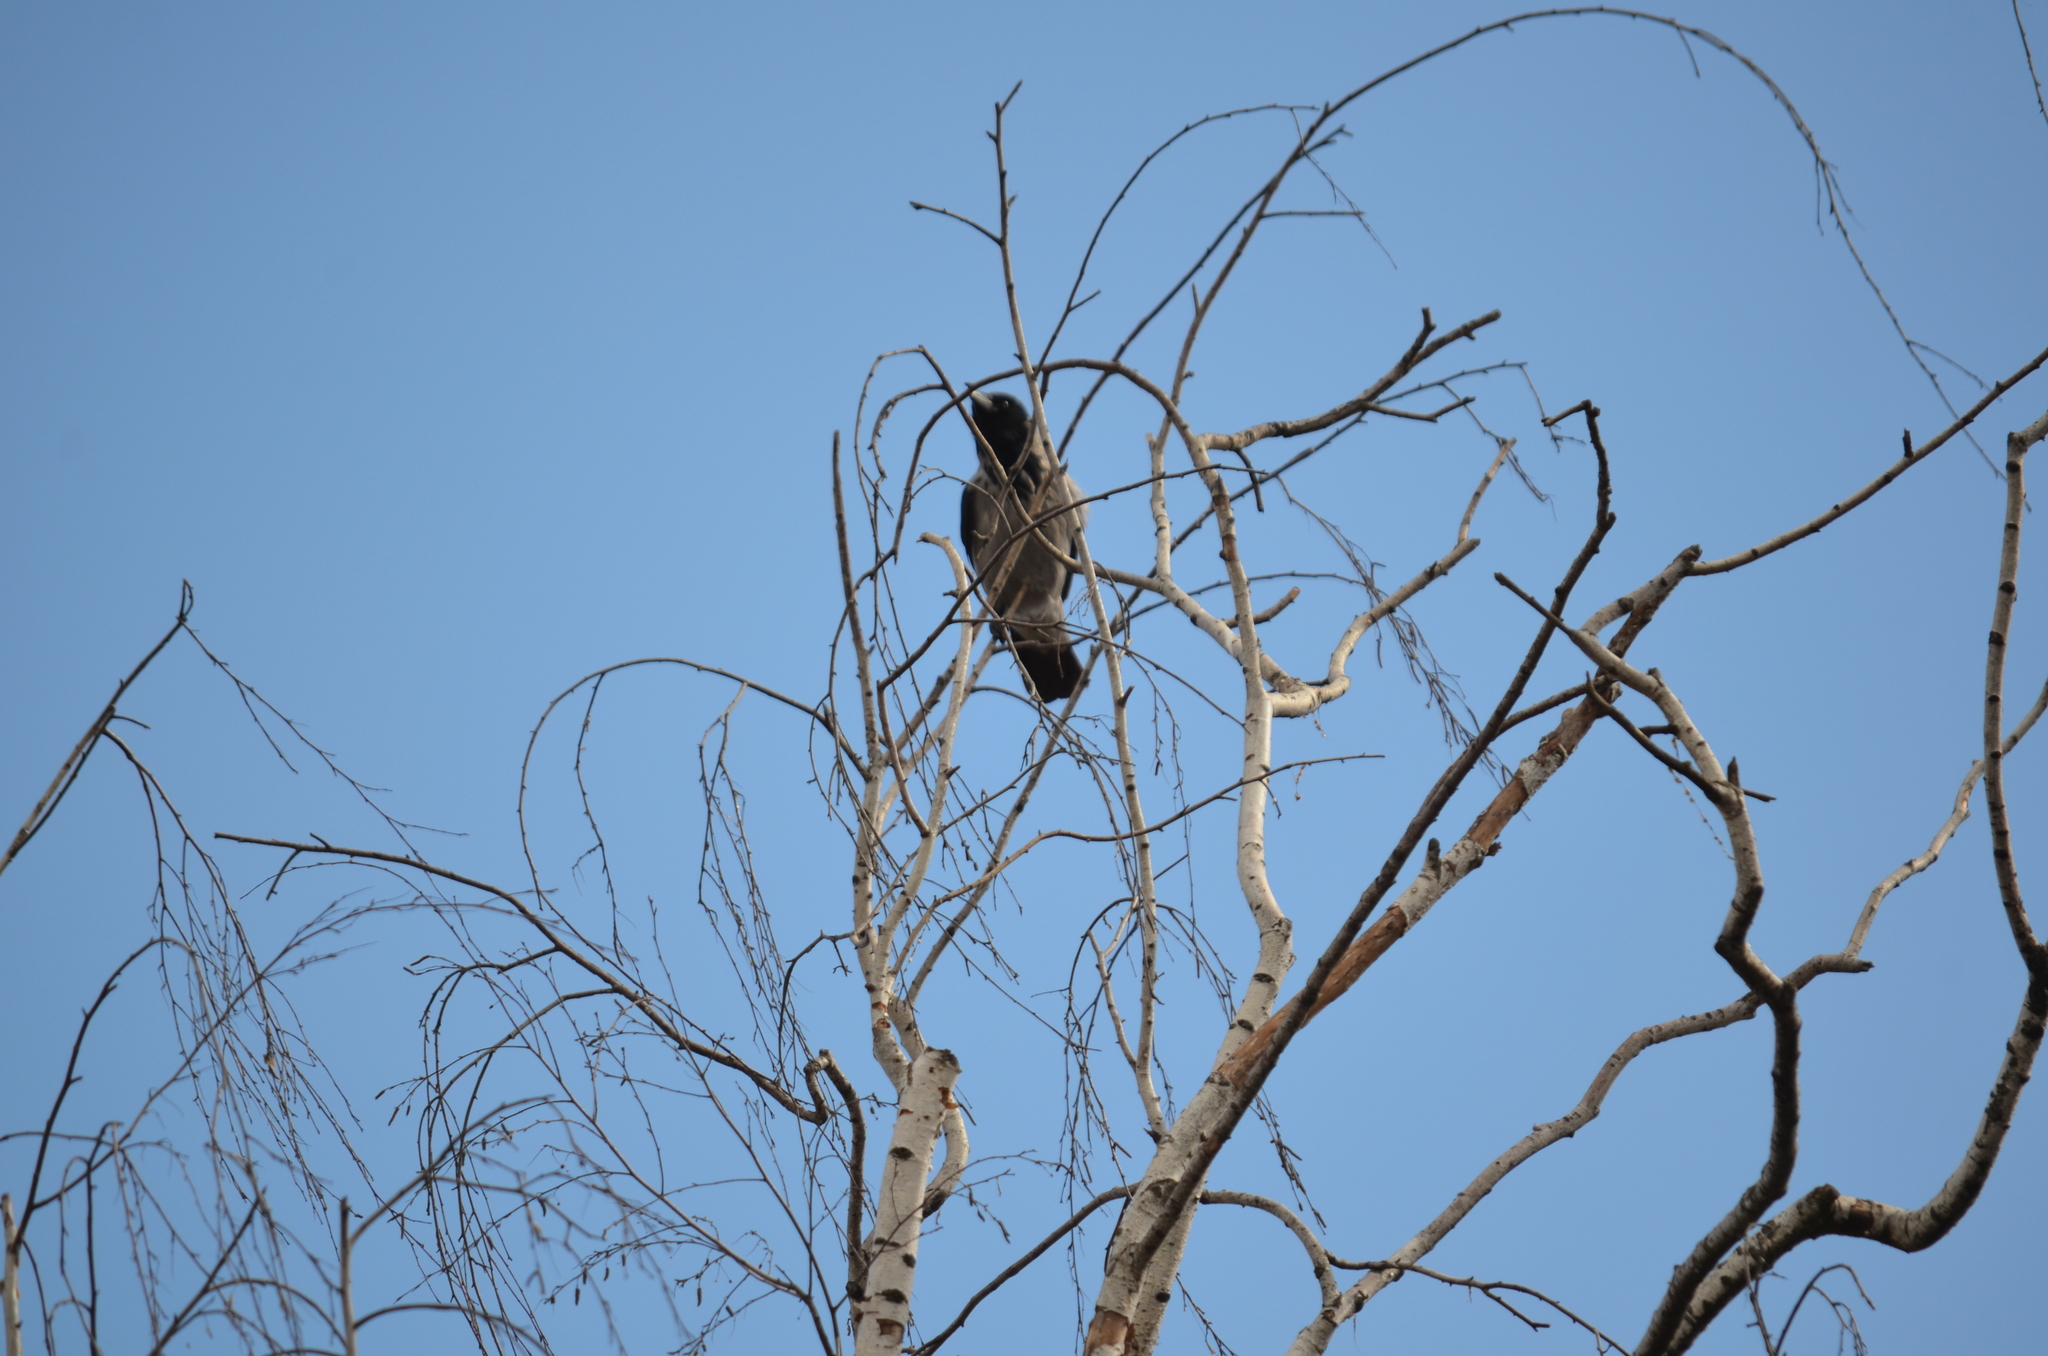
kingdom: Animalia
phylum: Chordata
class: Aves
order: Passeriformes
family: Corvidae
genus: Corvus
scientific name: Corvus cornix
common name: Hooded crow
